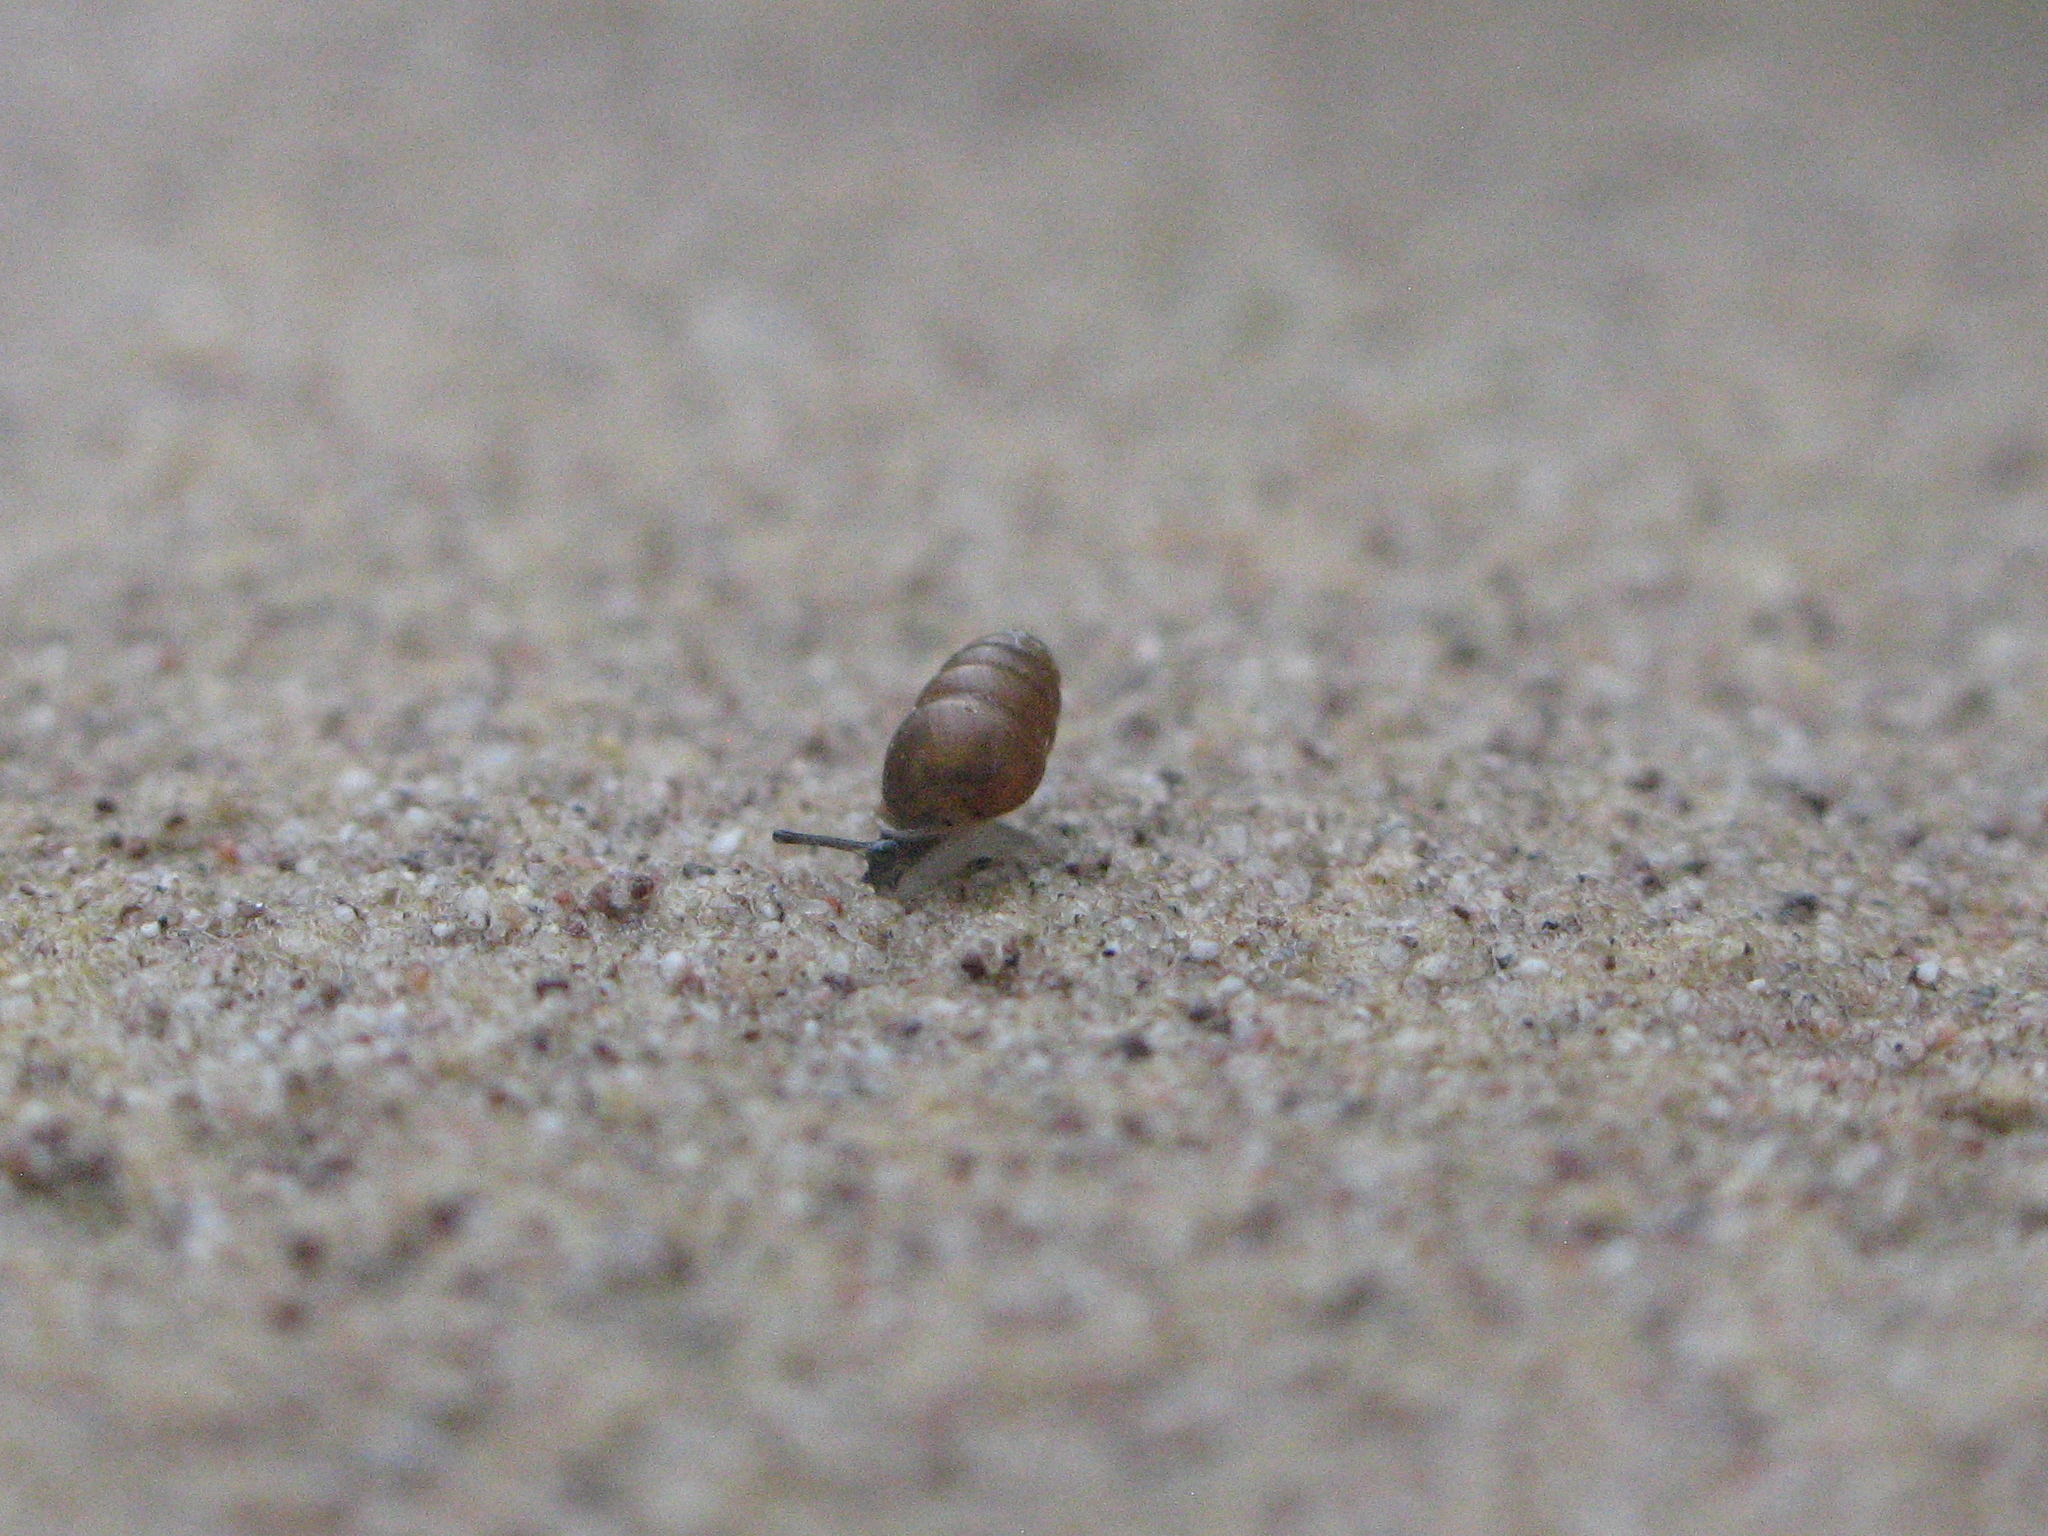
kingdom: Animalia
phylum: Mollusca
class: Gastropoda
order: Stylommatophora
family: Lauriidae
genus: Lauria
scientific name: Lauria cylindracea
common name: Common chrysalis snail
